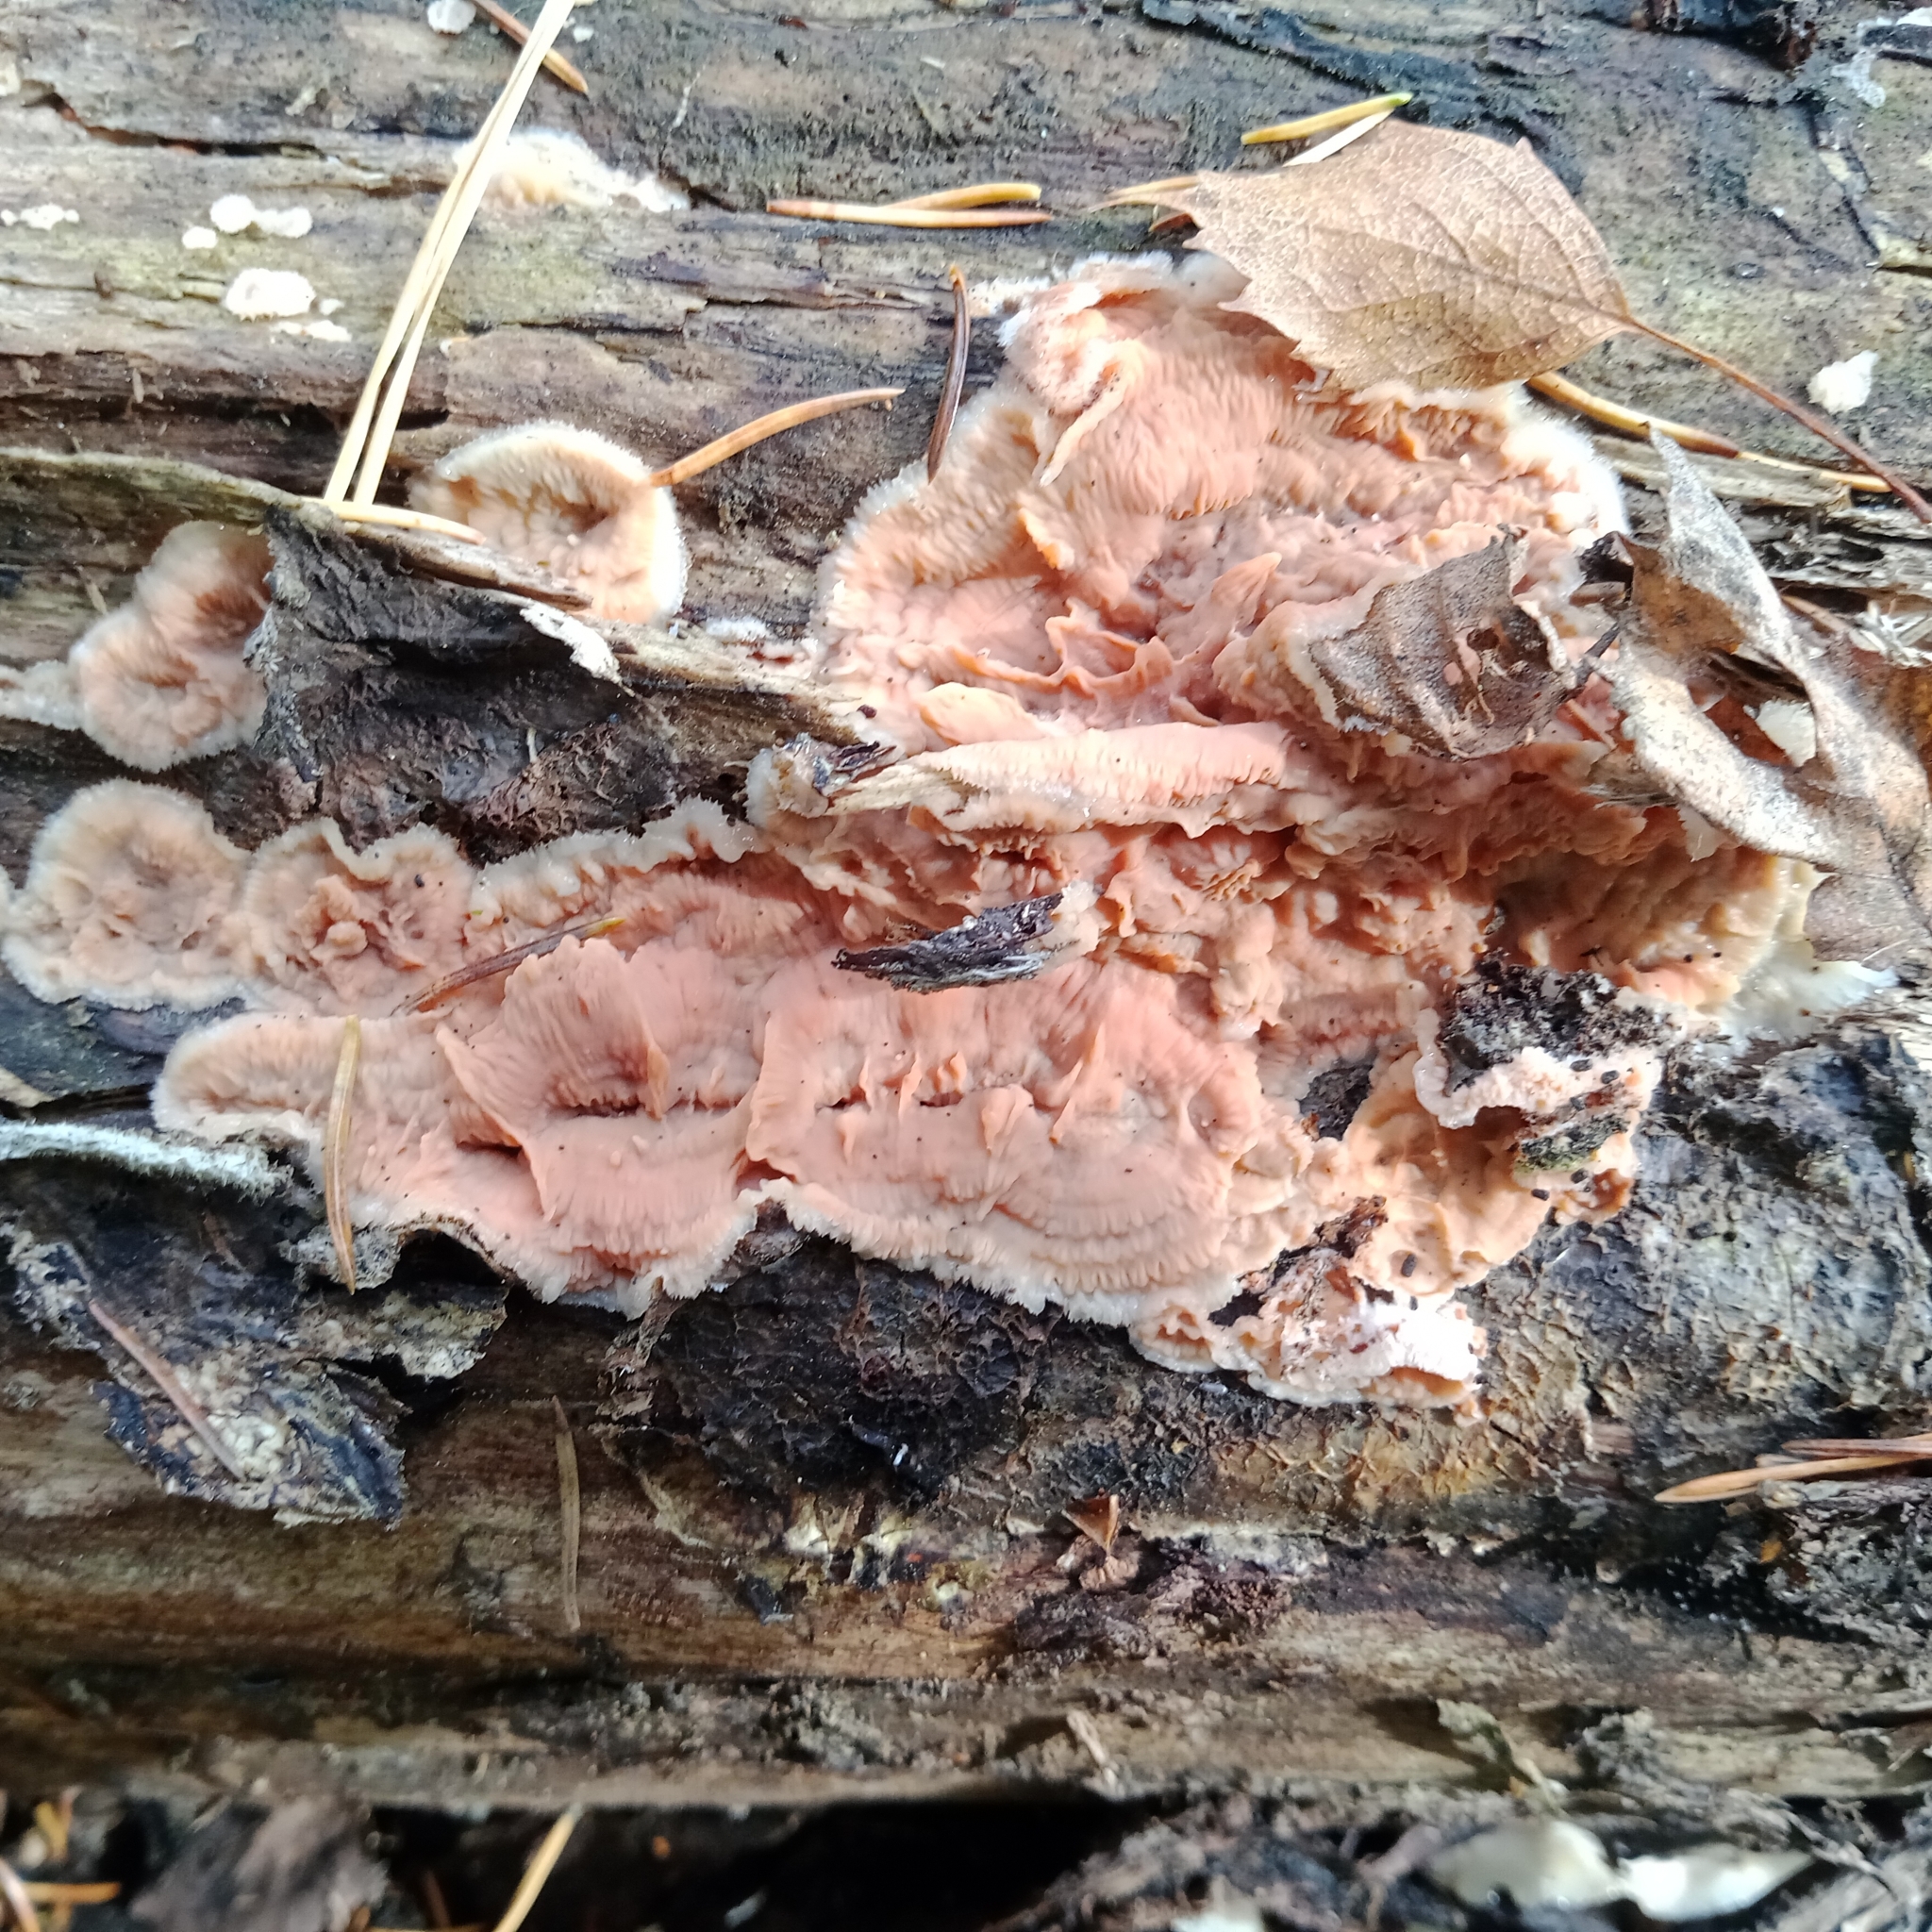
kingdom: Fungi
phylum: Basidiomycota
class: Agaricomycetes
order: Polyporales
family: Meruliaceae
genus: Phlebia
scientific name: Phlebia tremellosa
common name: Jelly rot
